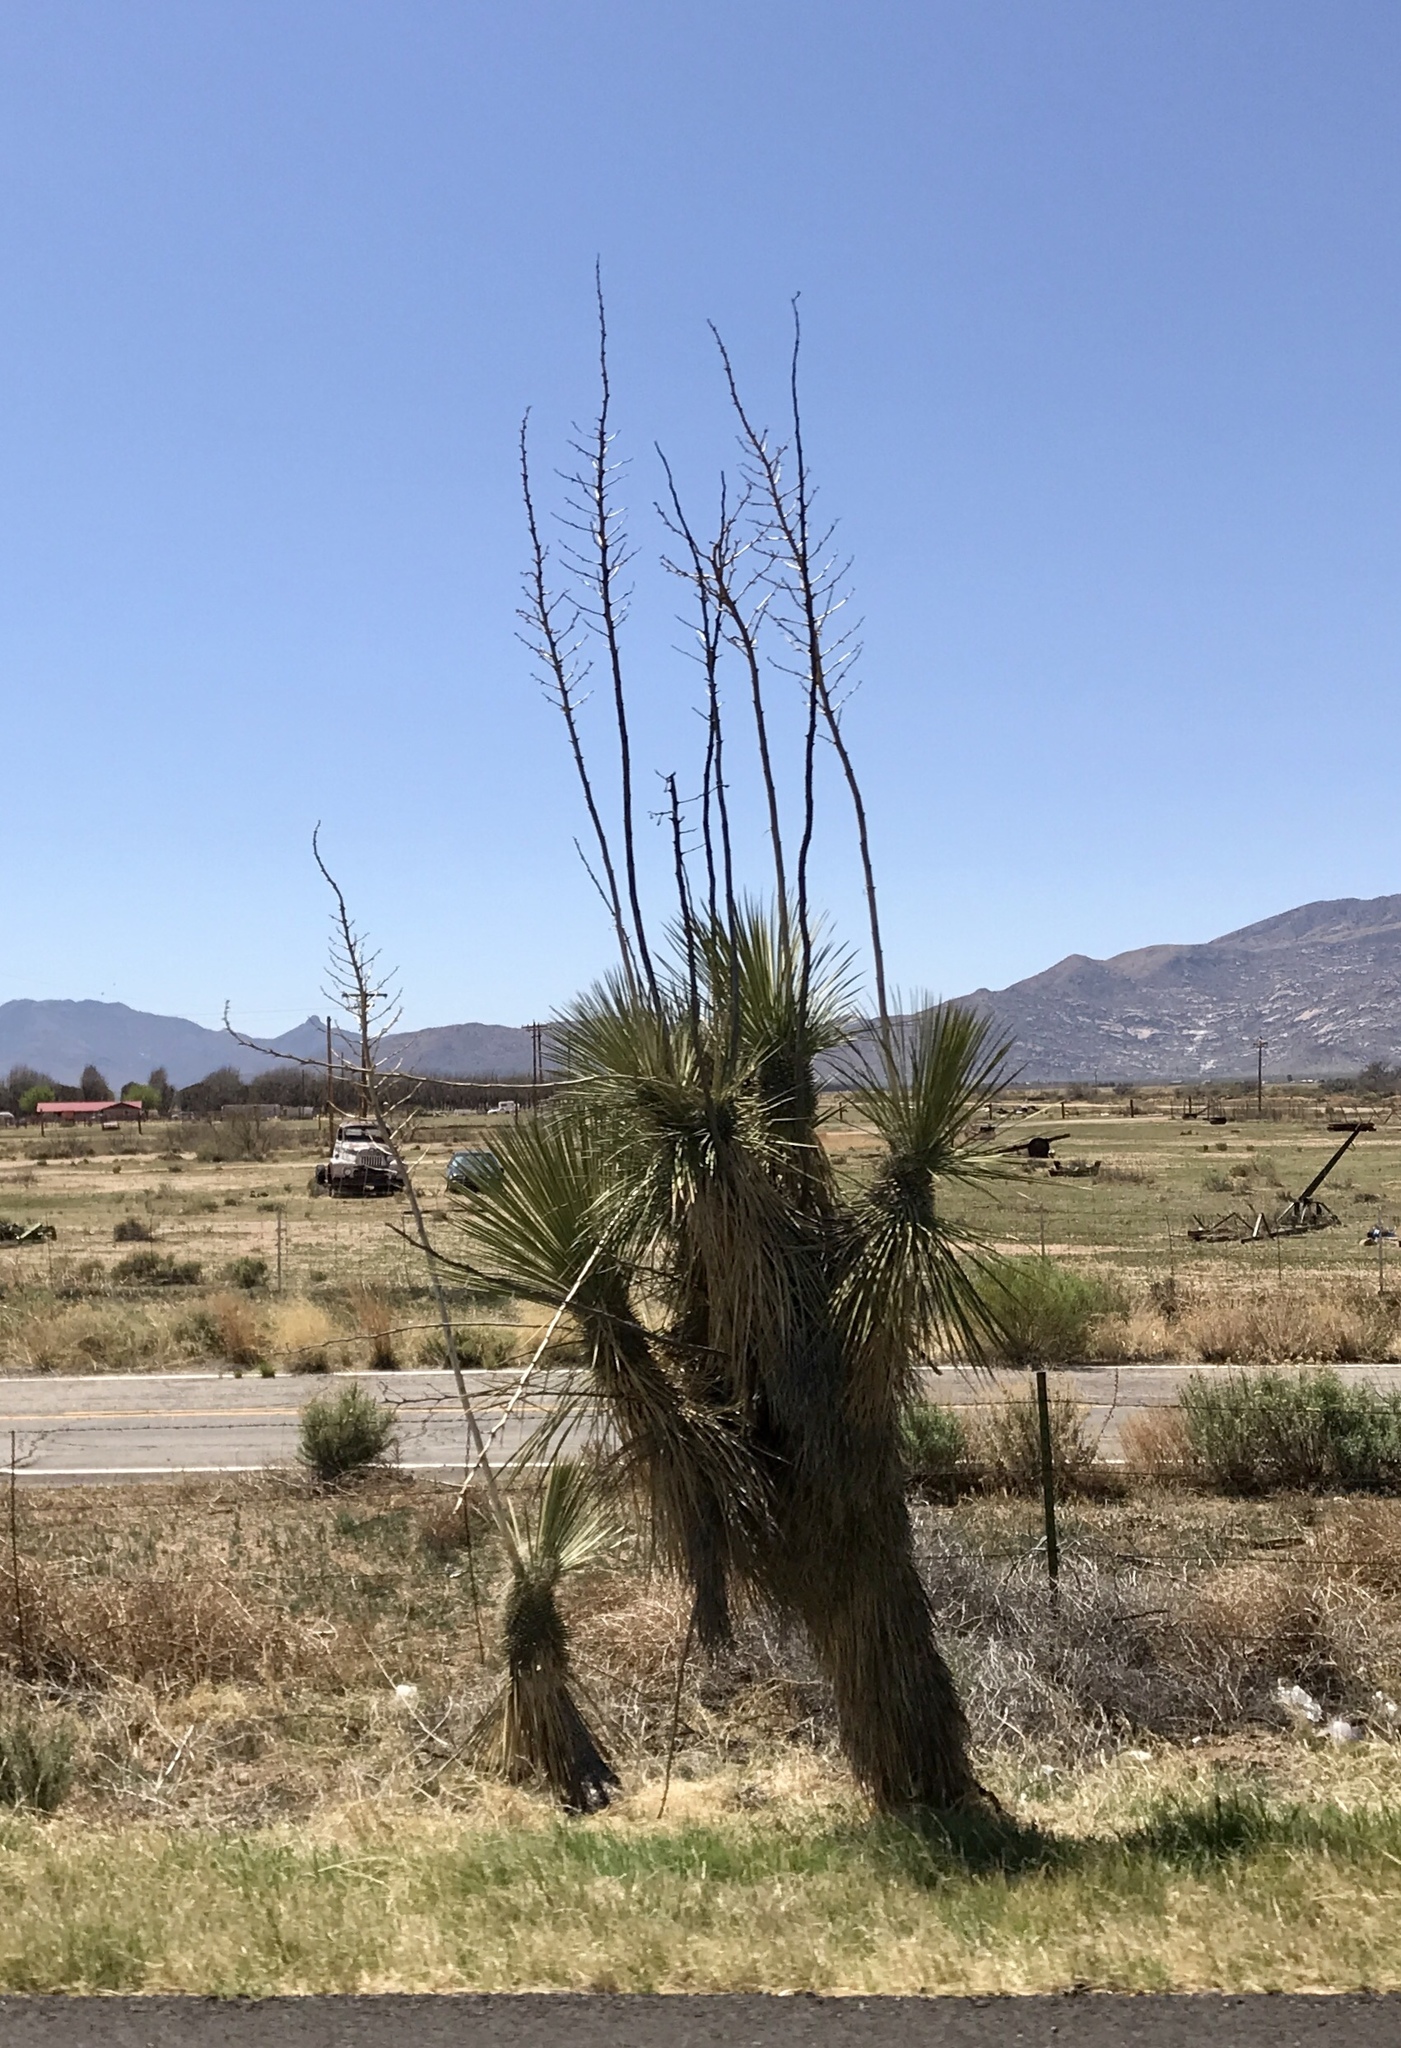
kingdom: Plantae
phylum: Tracheophyta
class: Liliopsida
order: Asparagales
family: Asparagaceae
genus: Yucca
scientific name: Yucca elata
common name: Palmella
